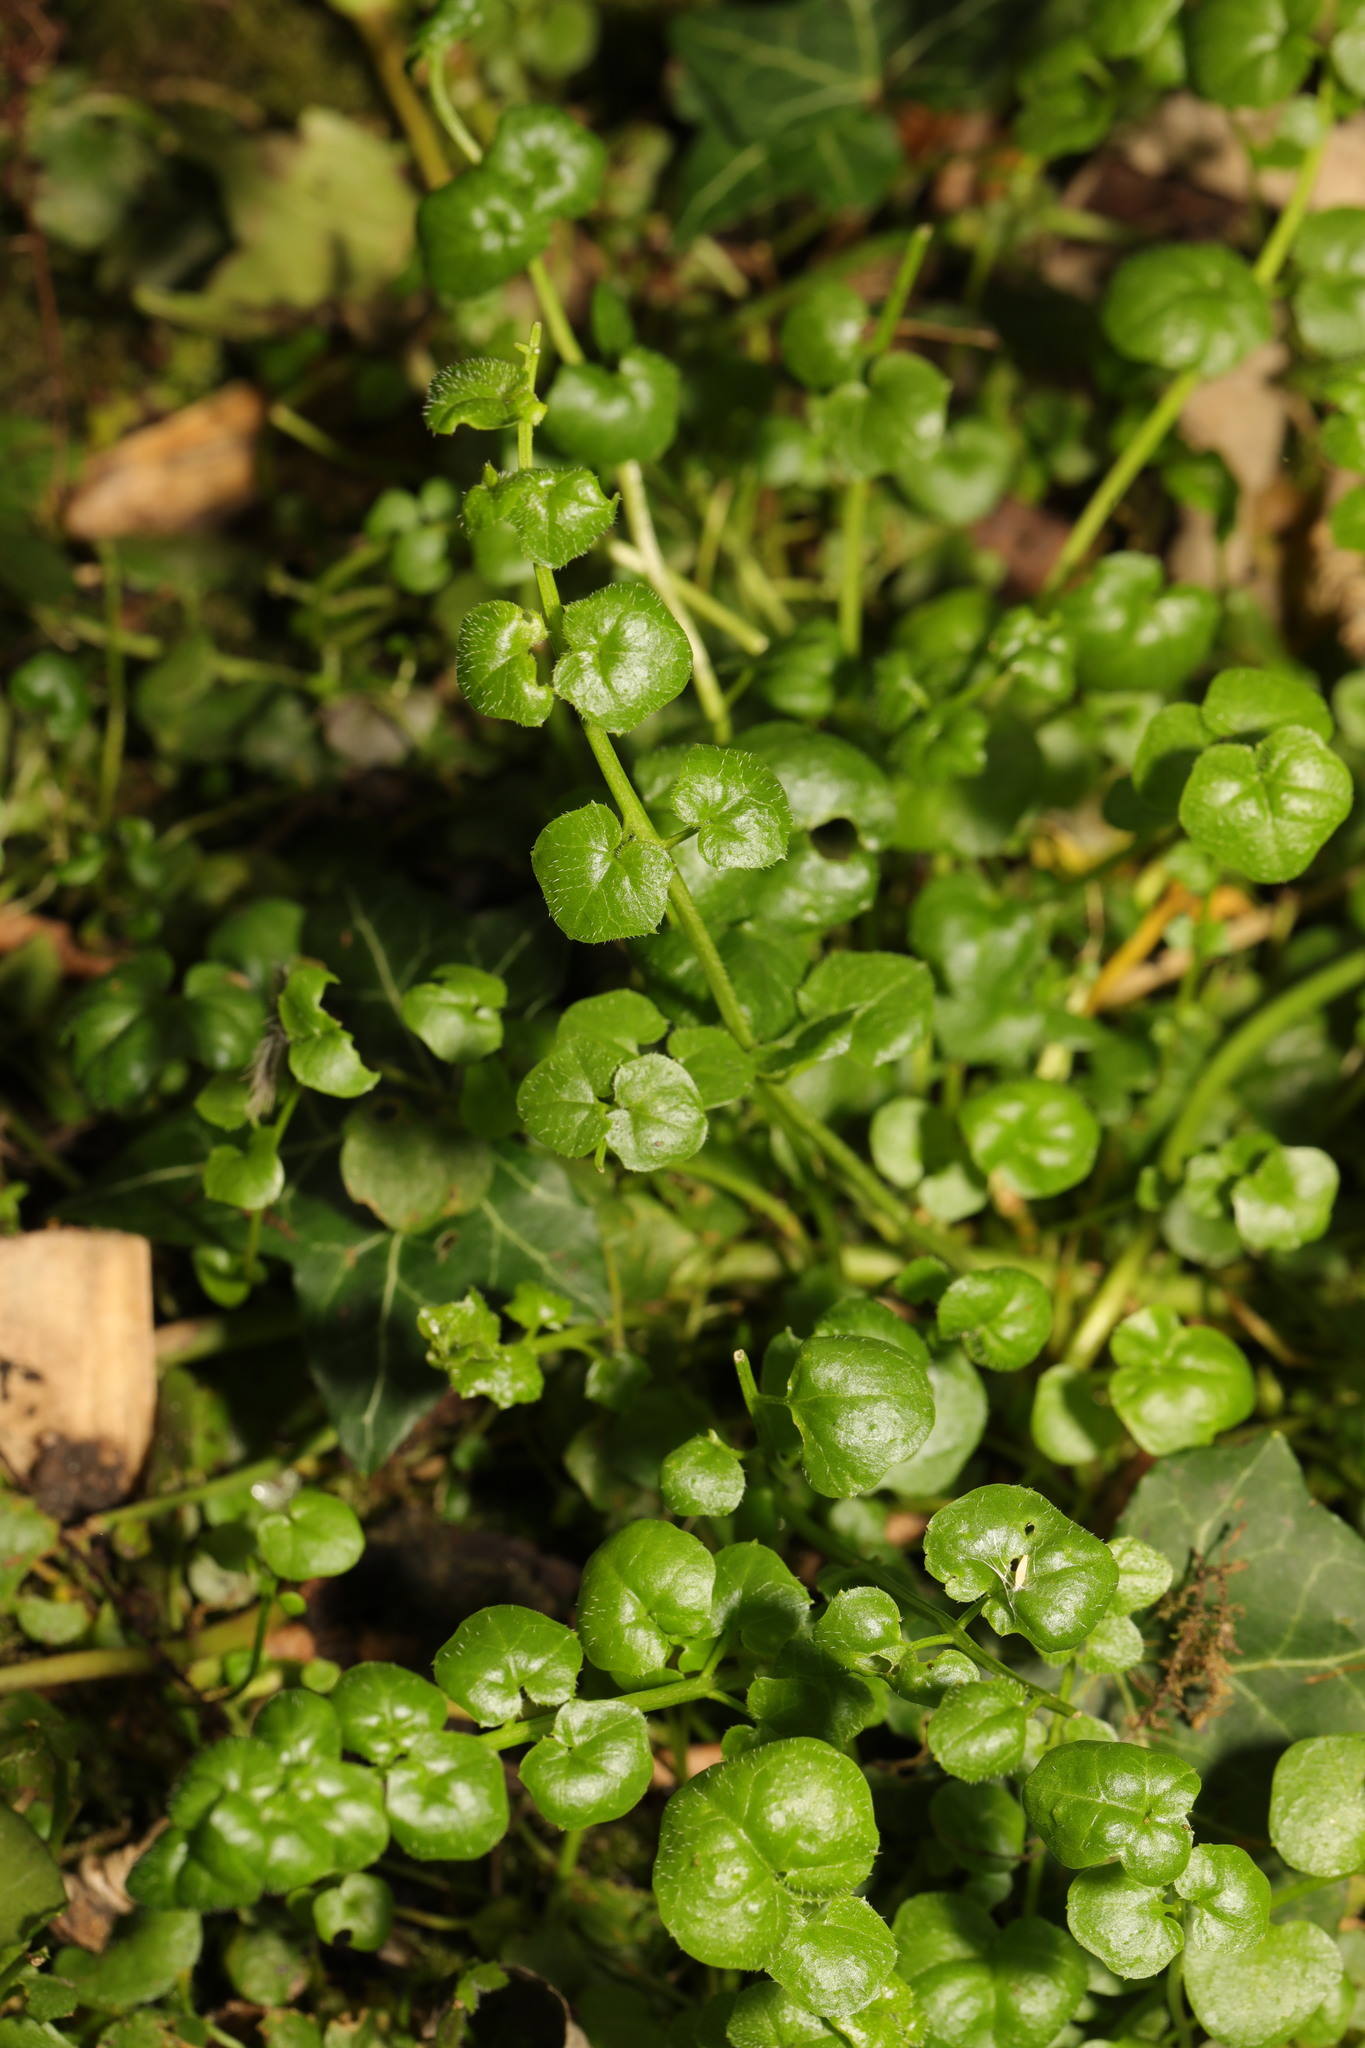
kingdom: Plantae
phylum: Tracheophyta
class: Magnoliopsida
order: Saxifragales
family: Saxifragaceae
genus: Chrysosplenium
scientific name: Chrysosplenium oppositifolium
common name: Opposite-leaved golden-saxifrage
